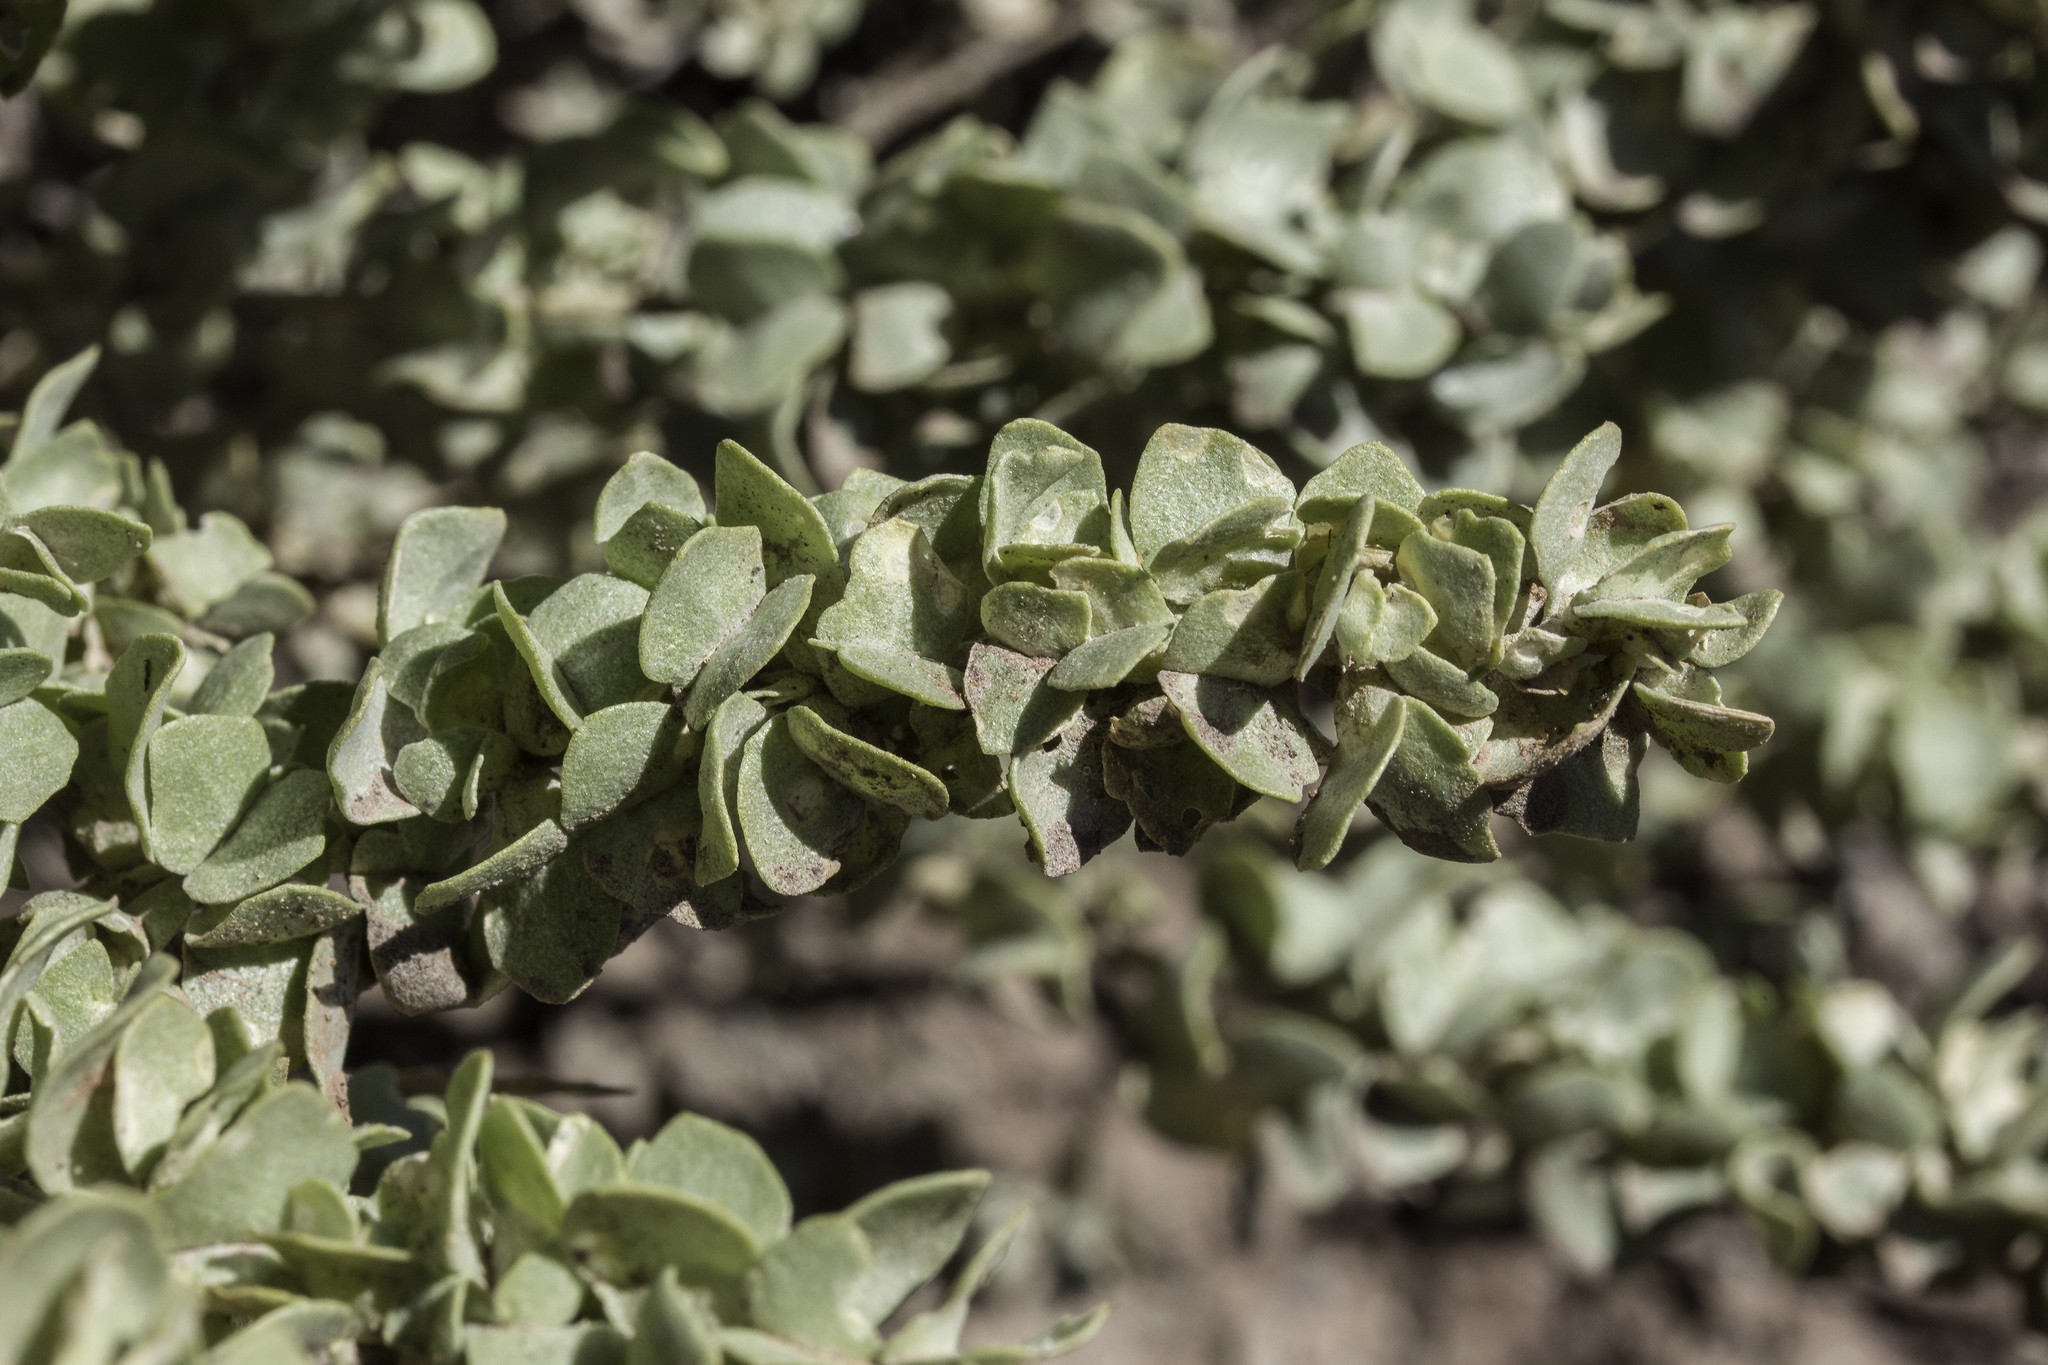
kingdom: Plantae
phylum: Tracheophyta
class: Magnoliopsida
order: Caryophyllales
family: Amaranthaceae
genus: Atriplex
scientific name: Atriplex confertifolia
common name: Shadscale
